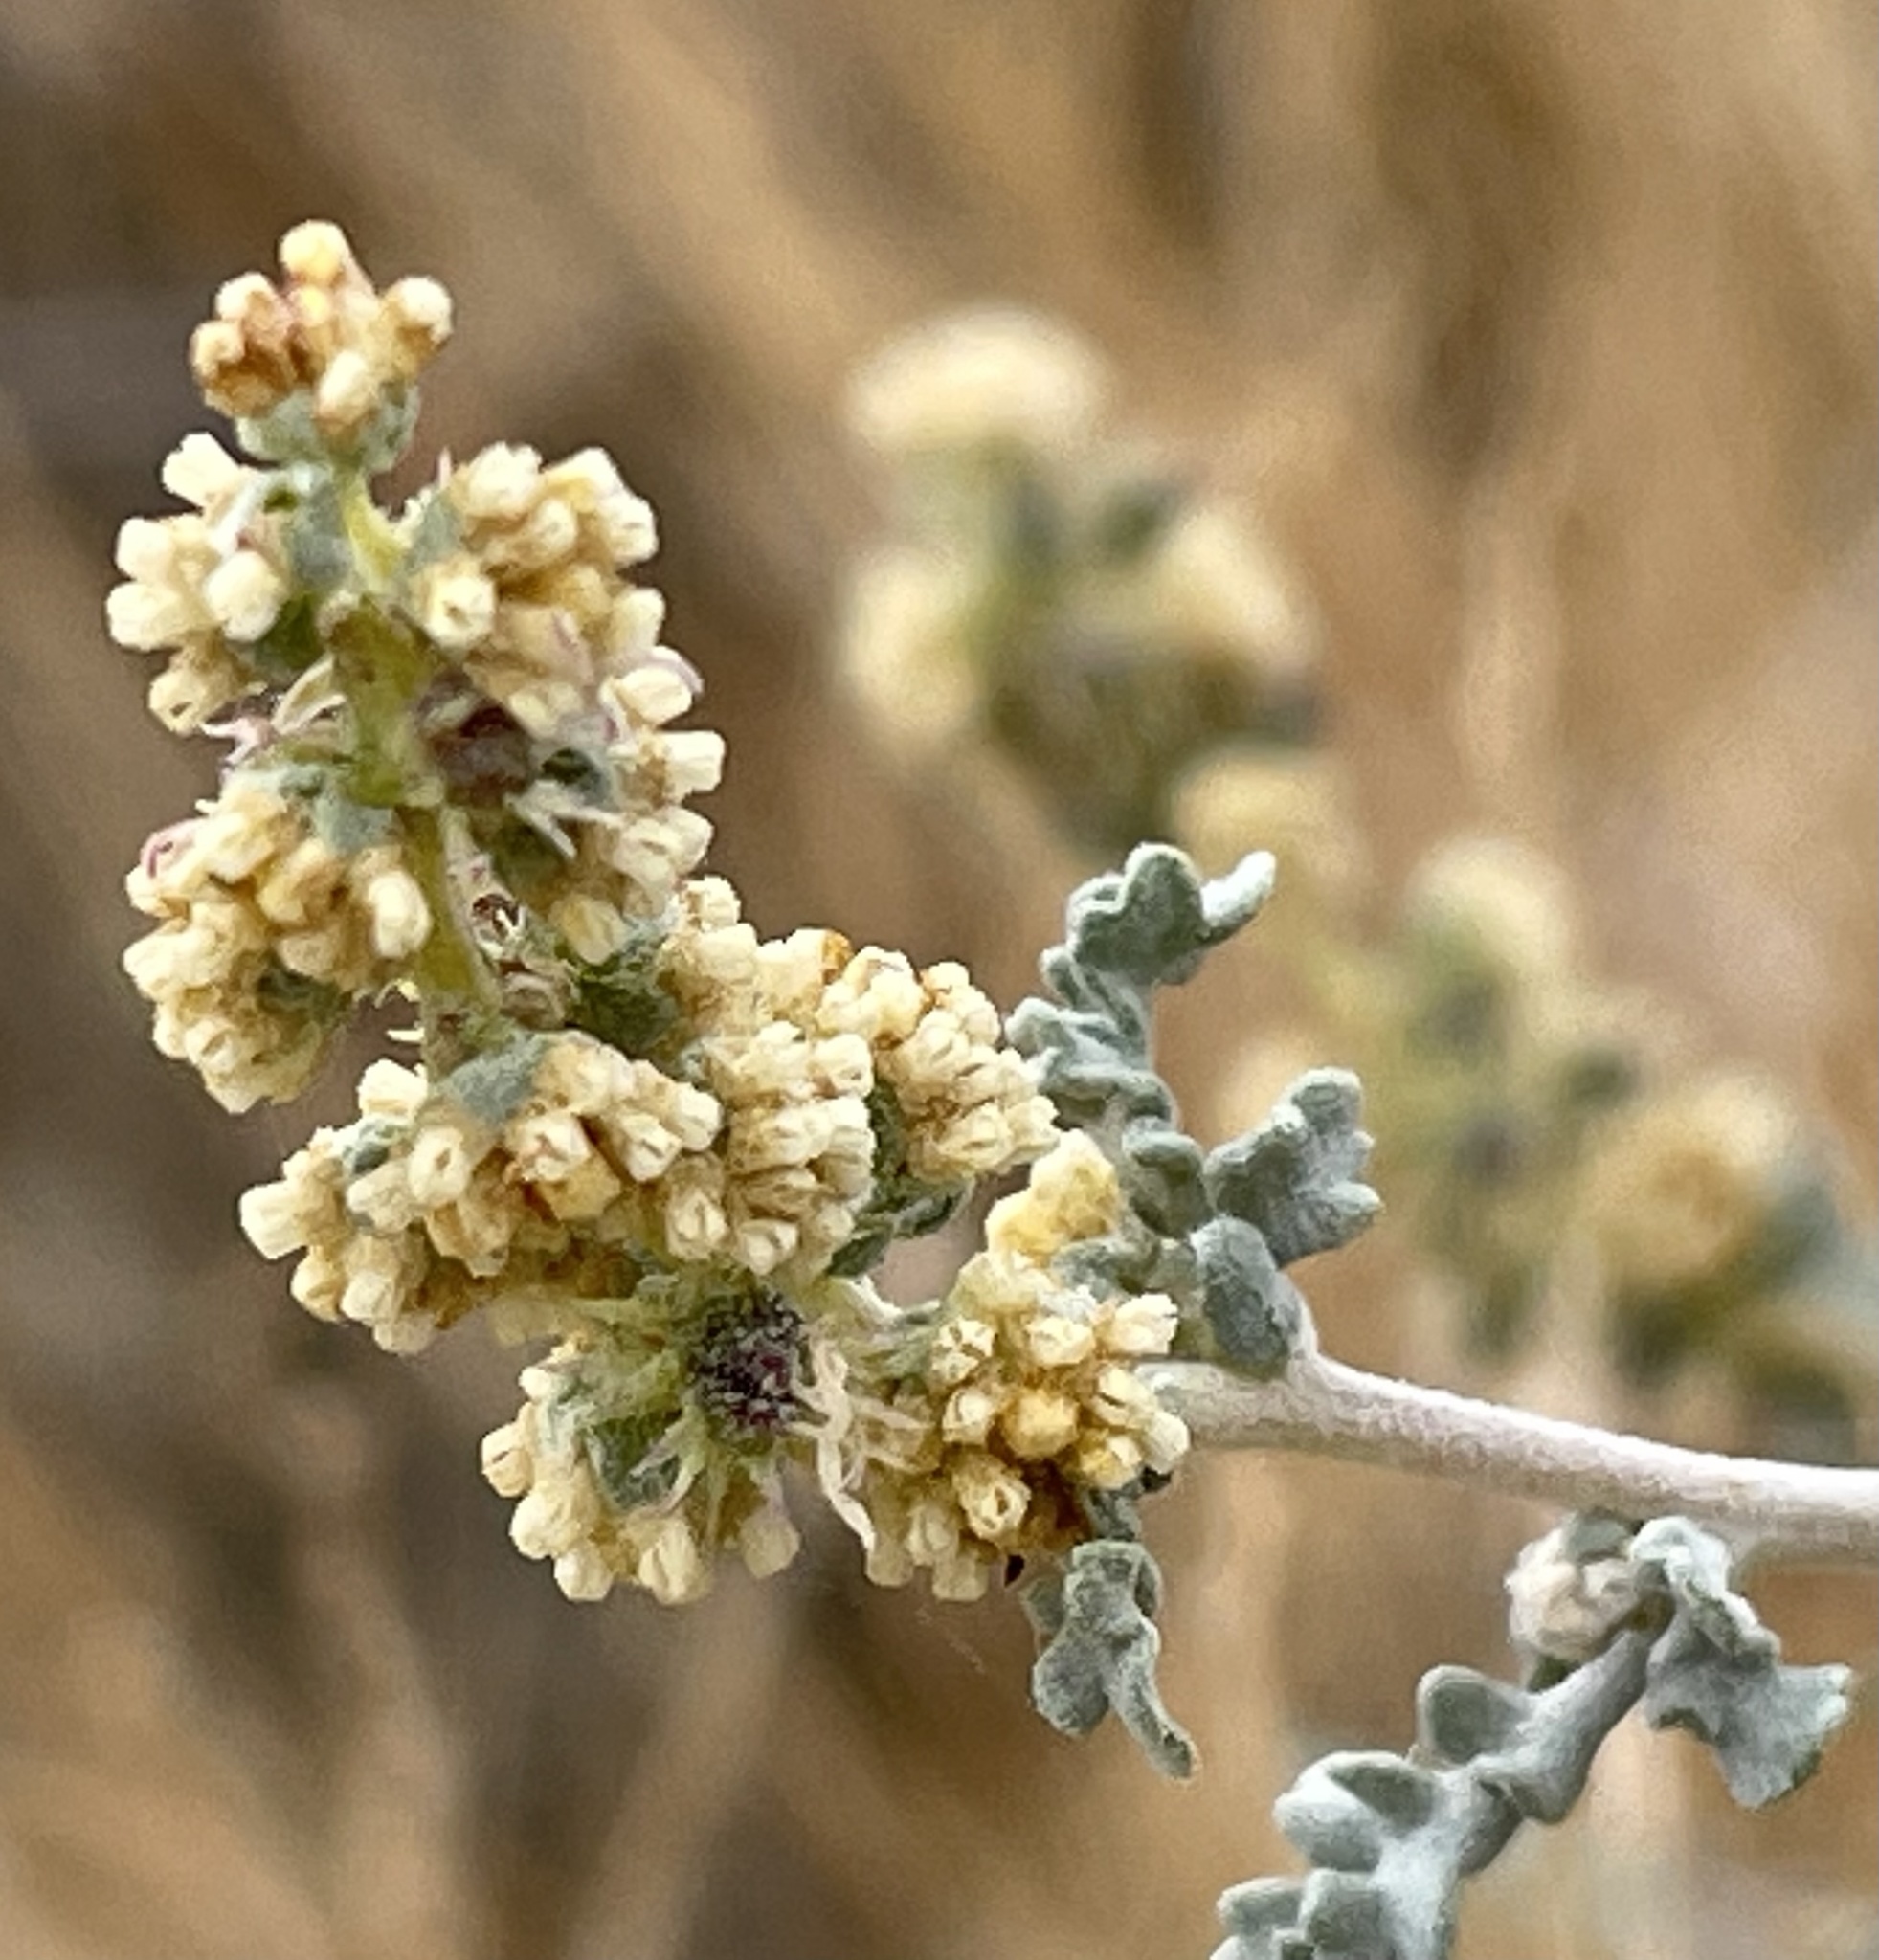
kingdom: Plantae
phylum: Tracheophyta
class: Magnoliopsida
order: Asterales
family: Asteraceae
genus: Ambrosia
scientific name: Ambrosia dumosa
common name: Bur-sage
